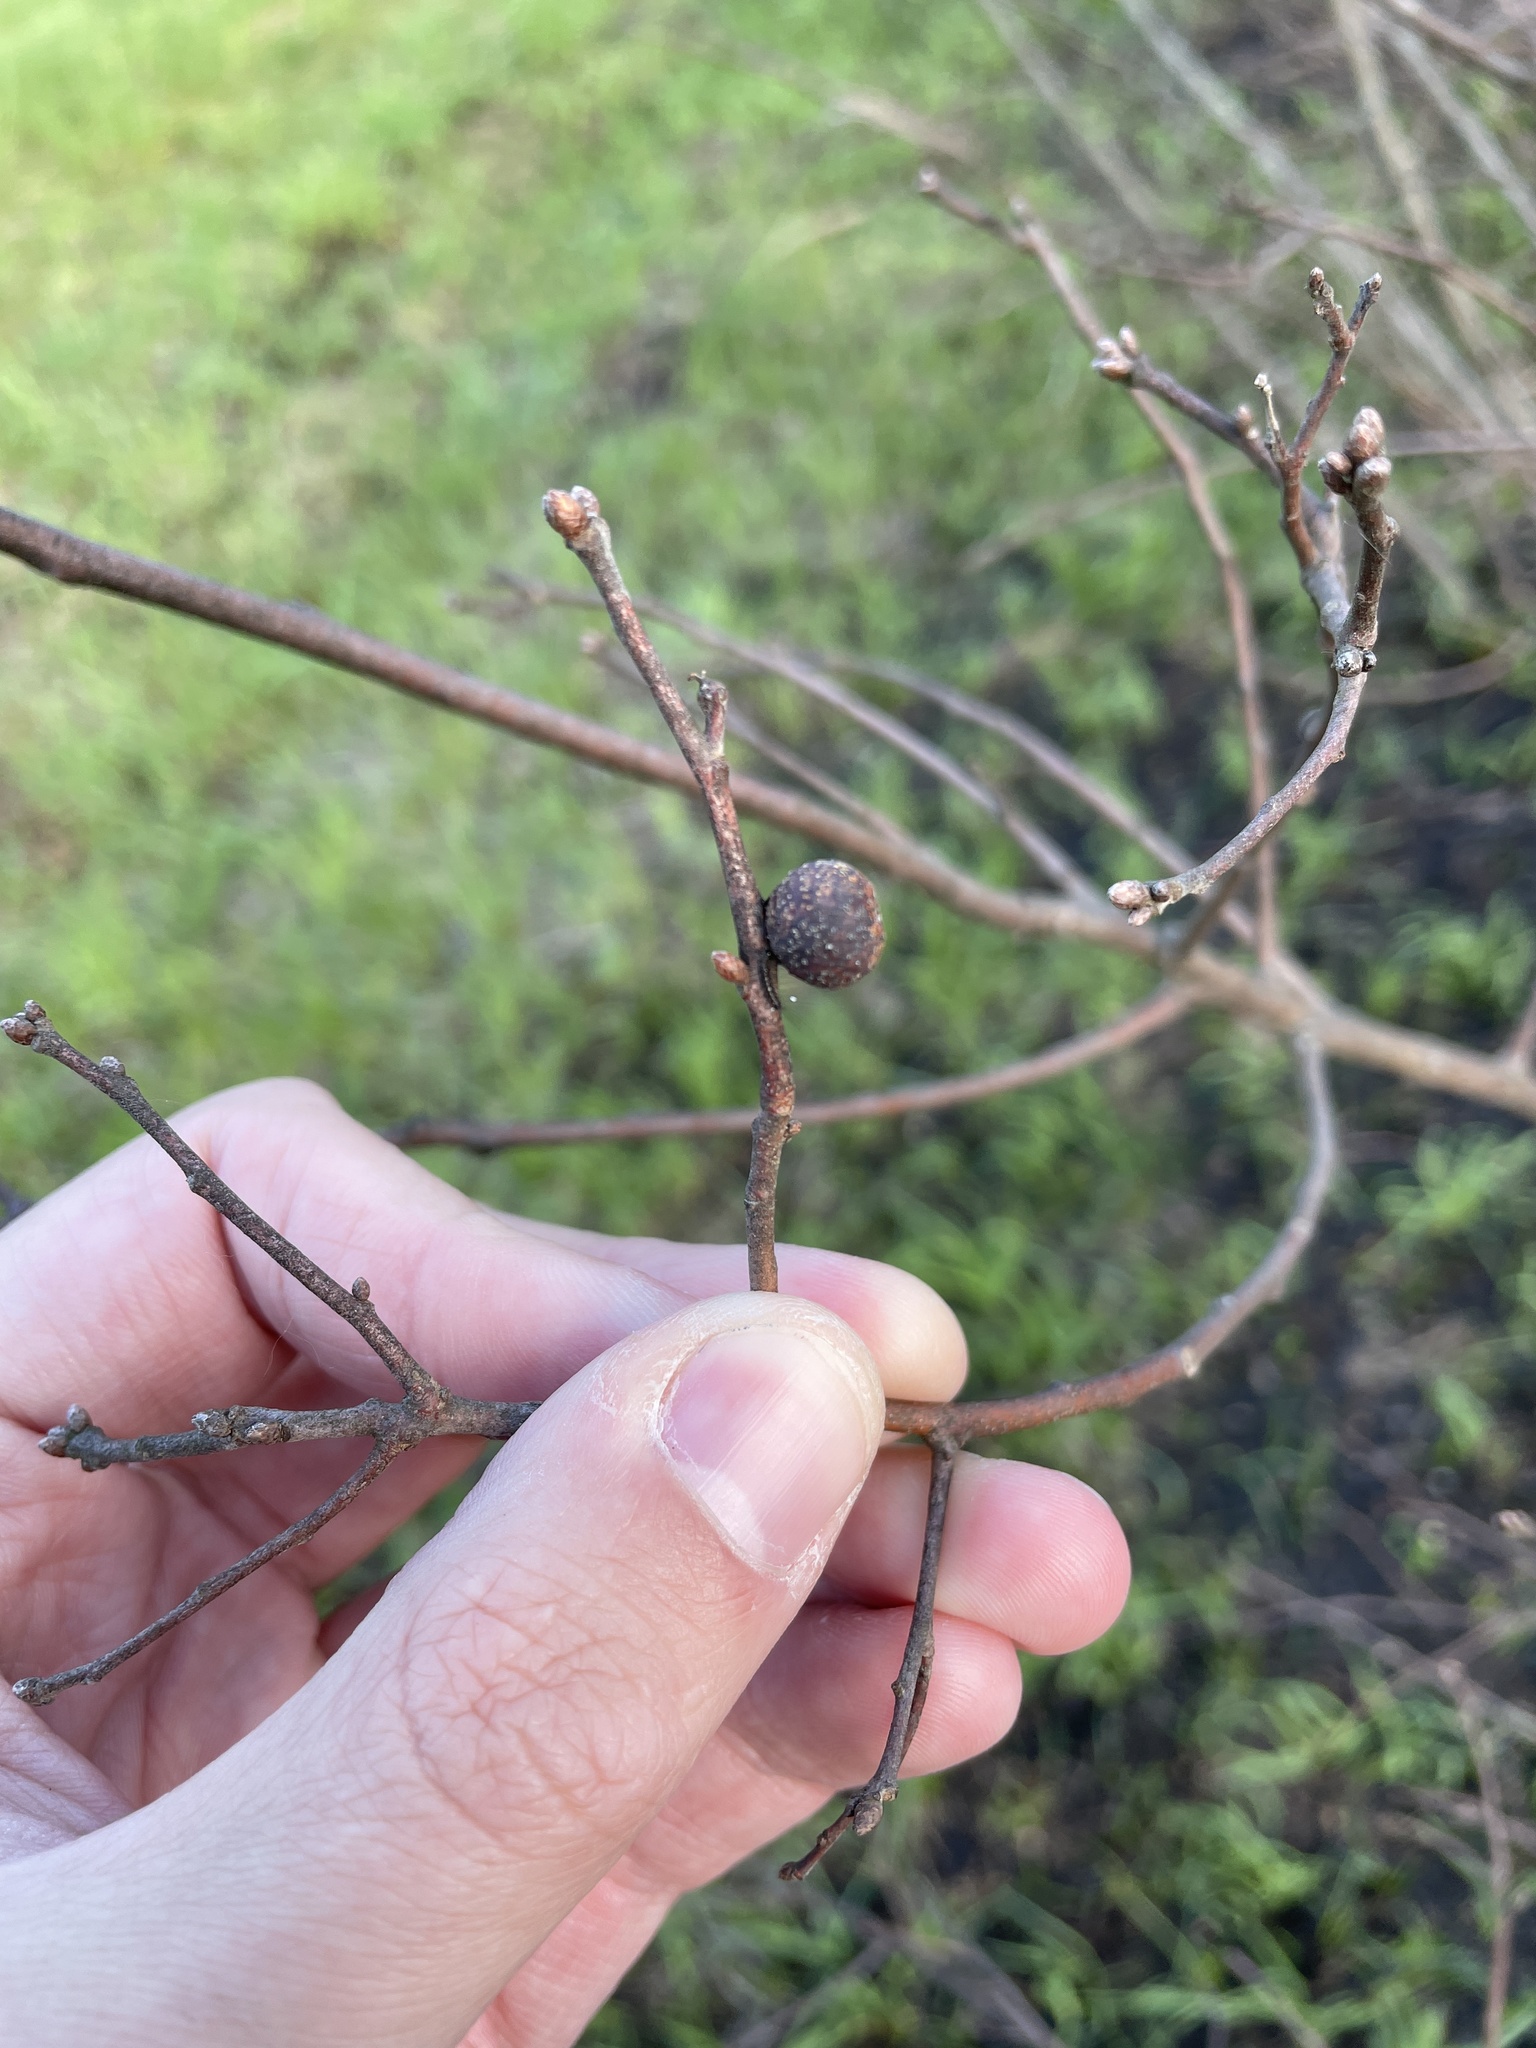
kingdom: Animalia
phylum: Arthropoda
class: Insecta
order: Hymenoptera
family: Cynipidae
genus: Kokkocynips
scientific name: Kokkocynips imbricariae
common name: Banded bullet gall wasp
